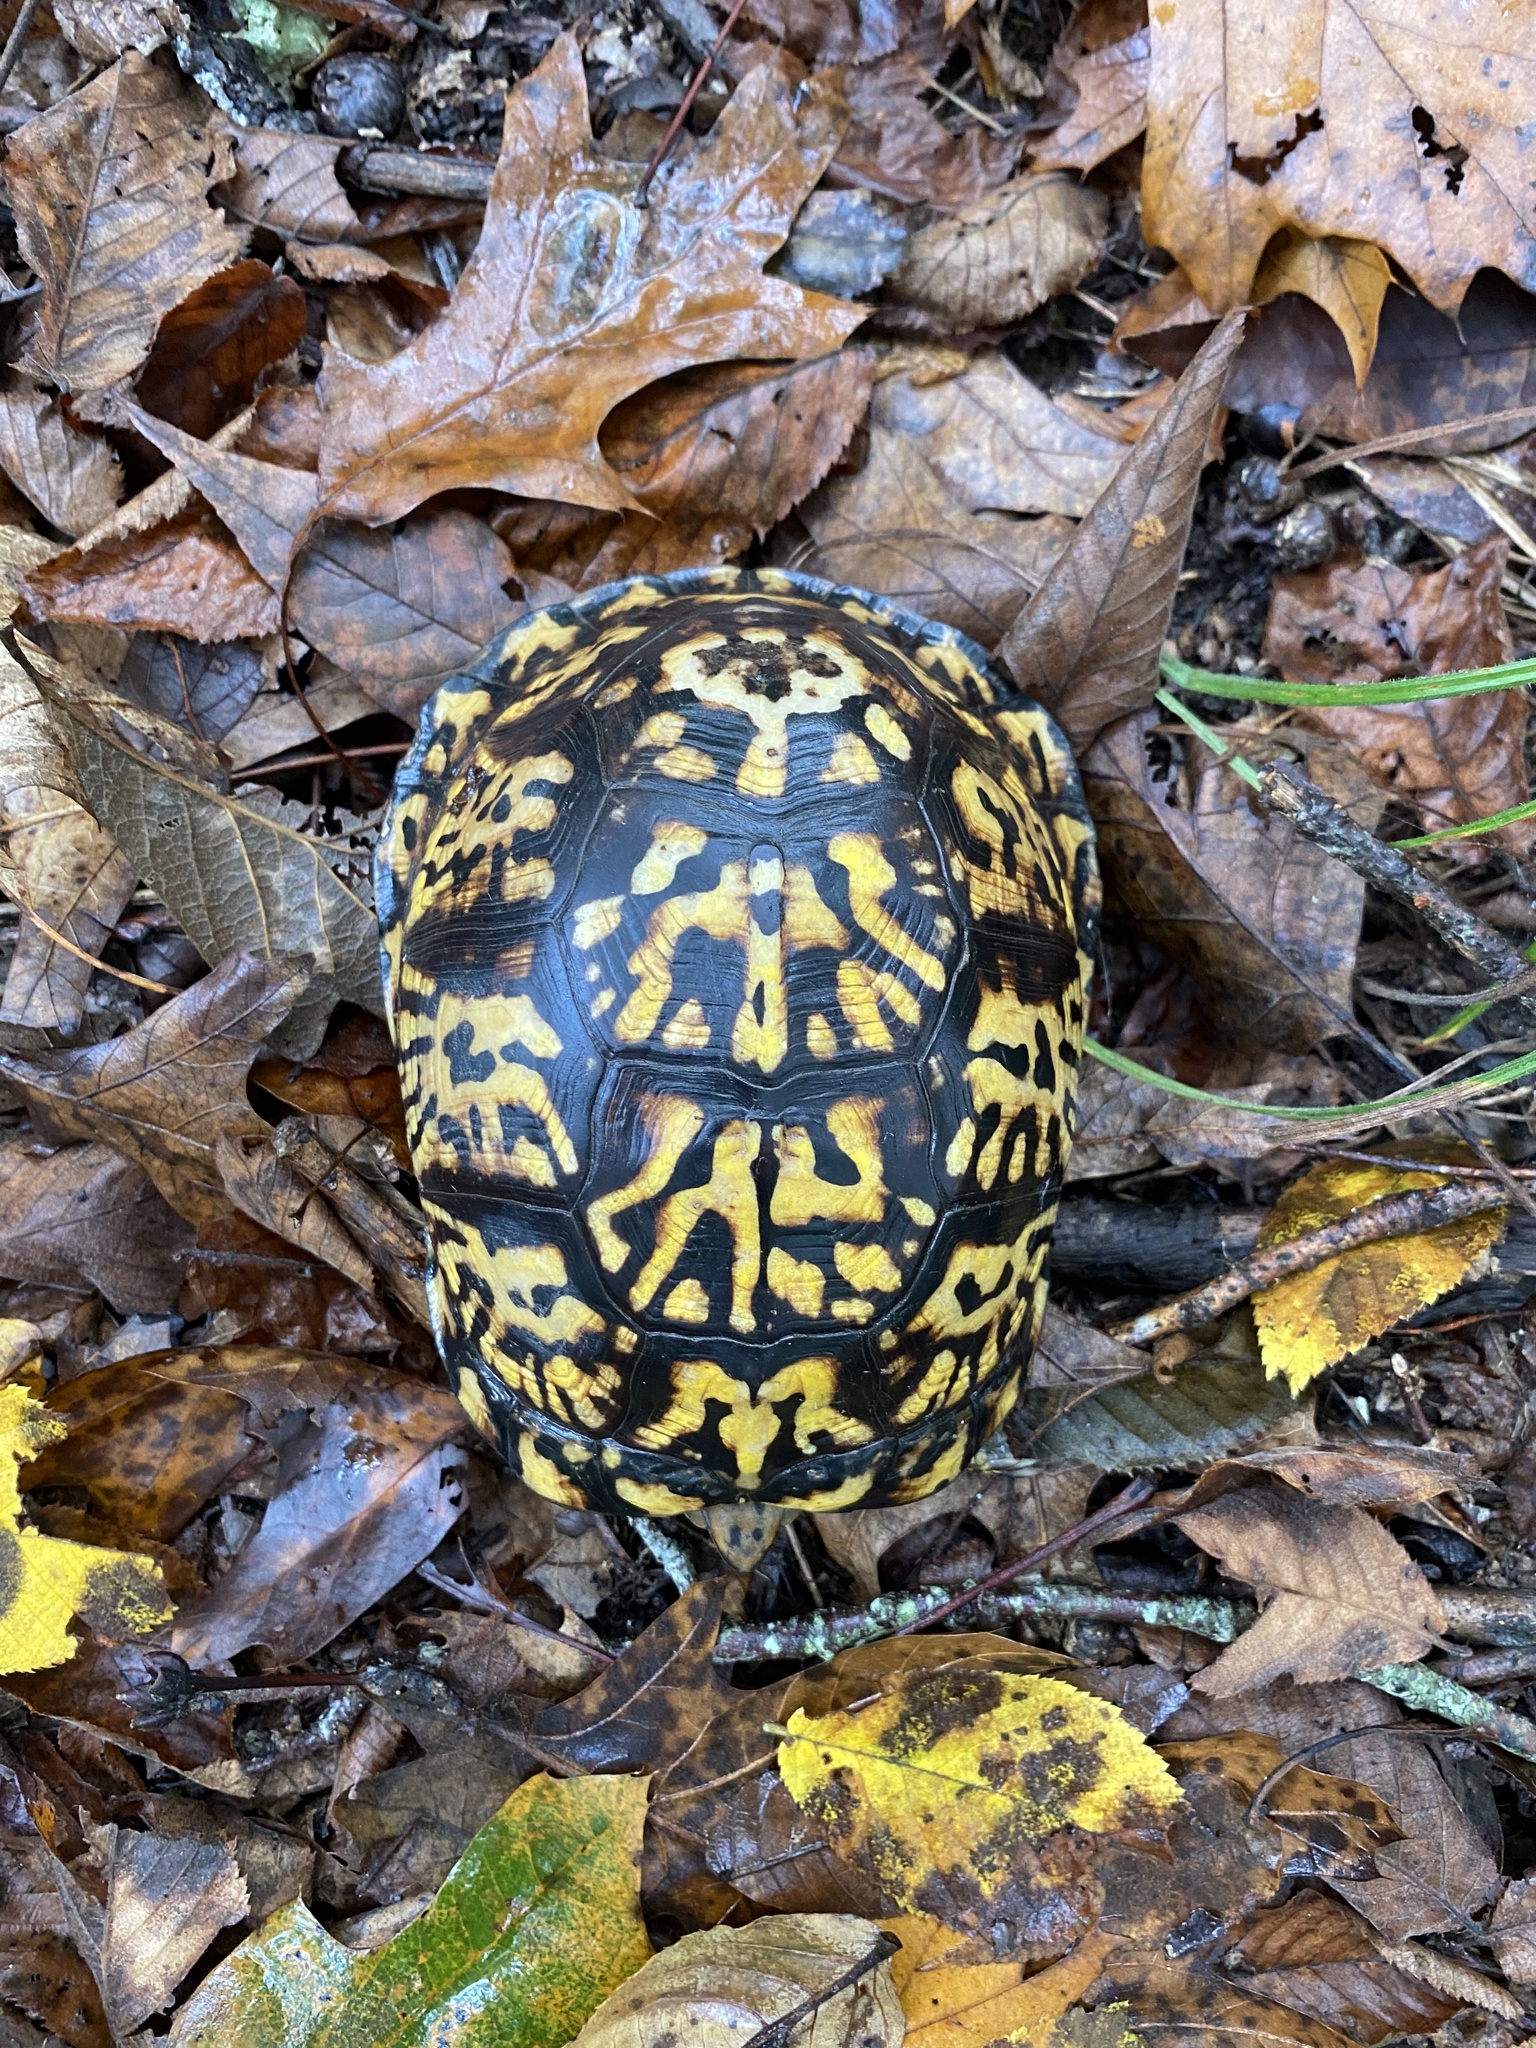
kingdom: Animalia
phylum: Chordata
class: Testudines
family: Emydidae
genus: Terrapene
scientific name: Terrapene carolina
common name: Common box turtle
